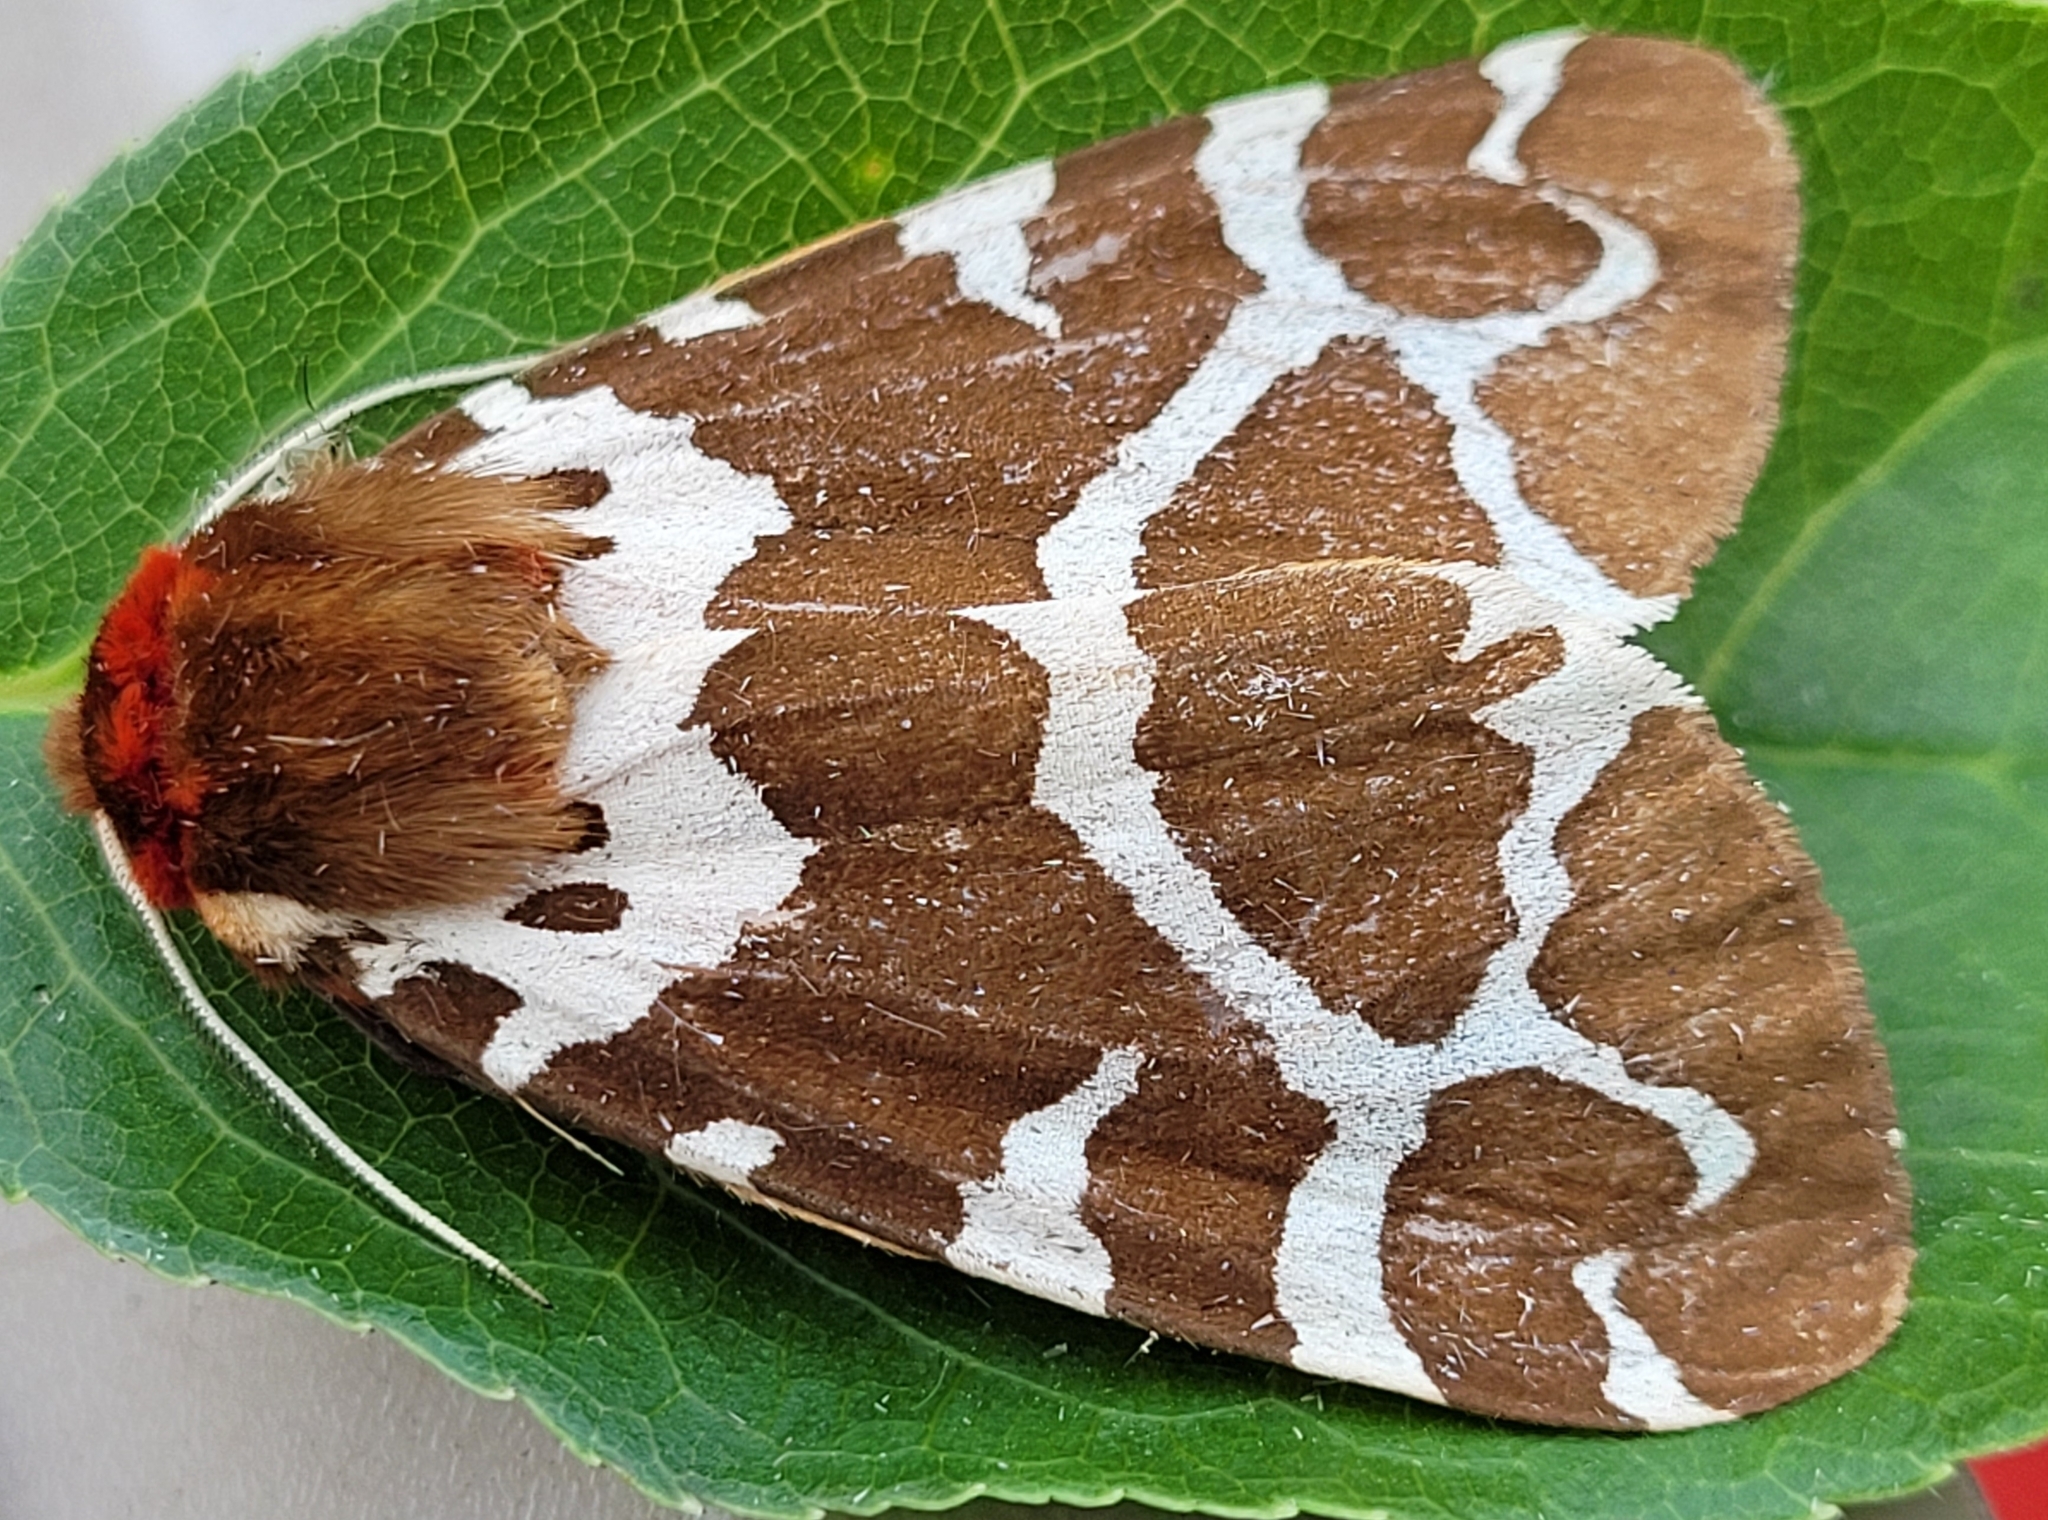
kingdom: Animalia
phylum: Arthropoda
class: Insecta
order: Lepidoptera
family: Erebidae
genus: Arctia
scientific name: Arctia caja
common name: Garden tiger
